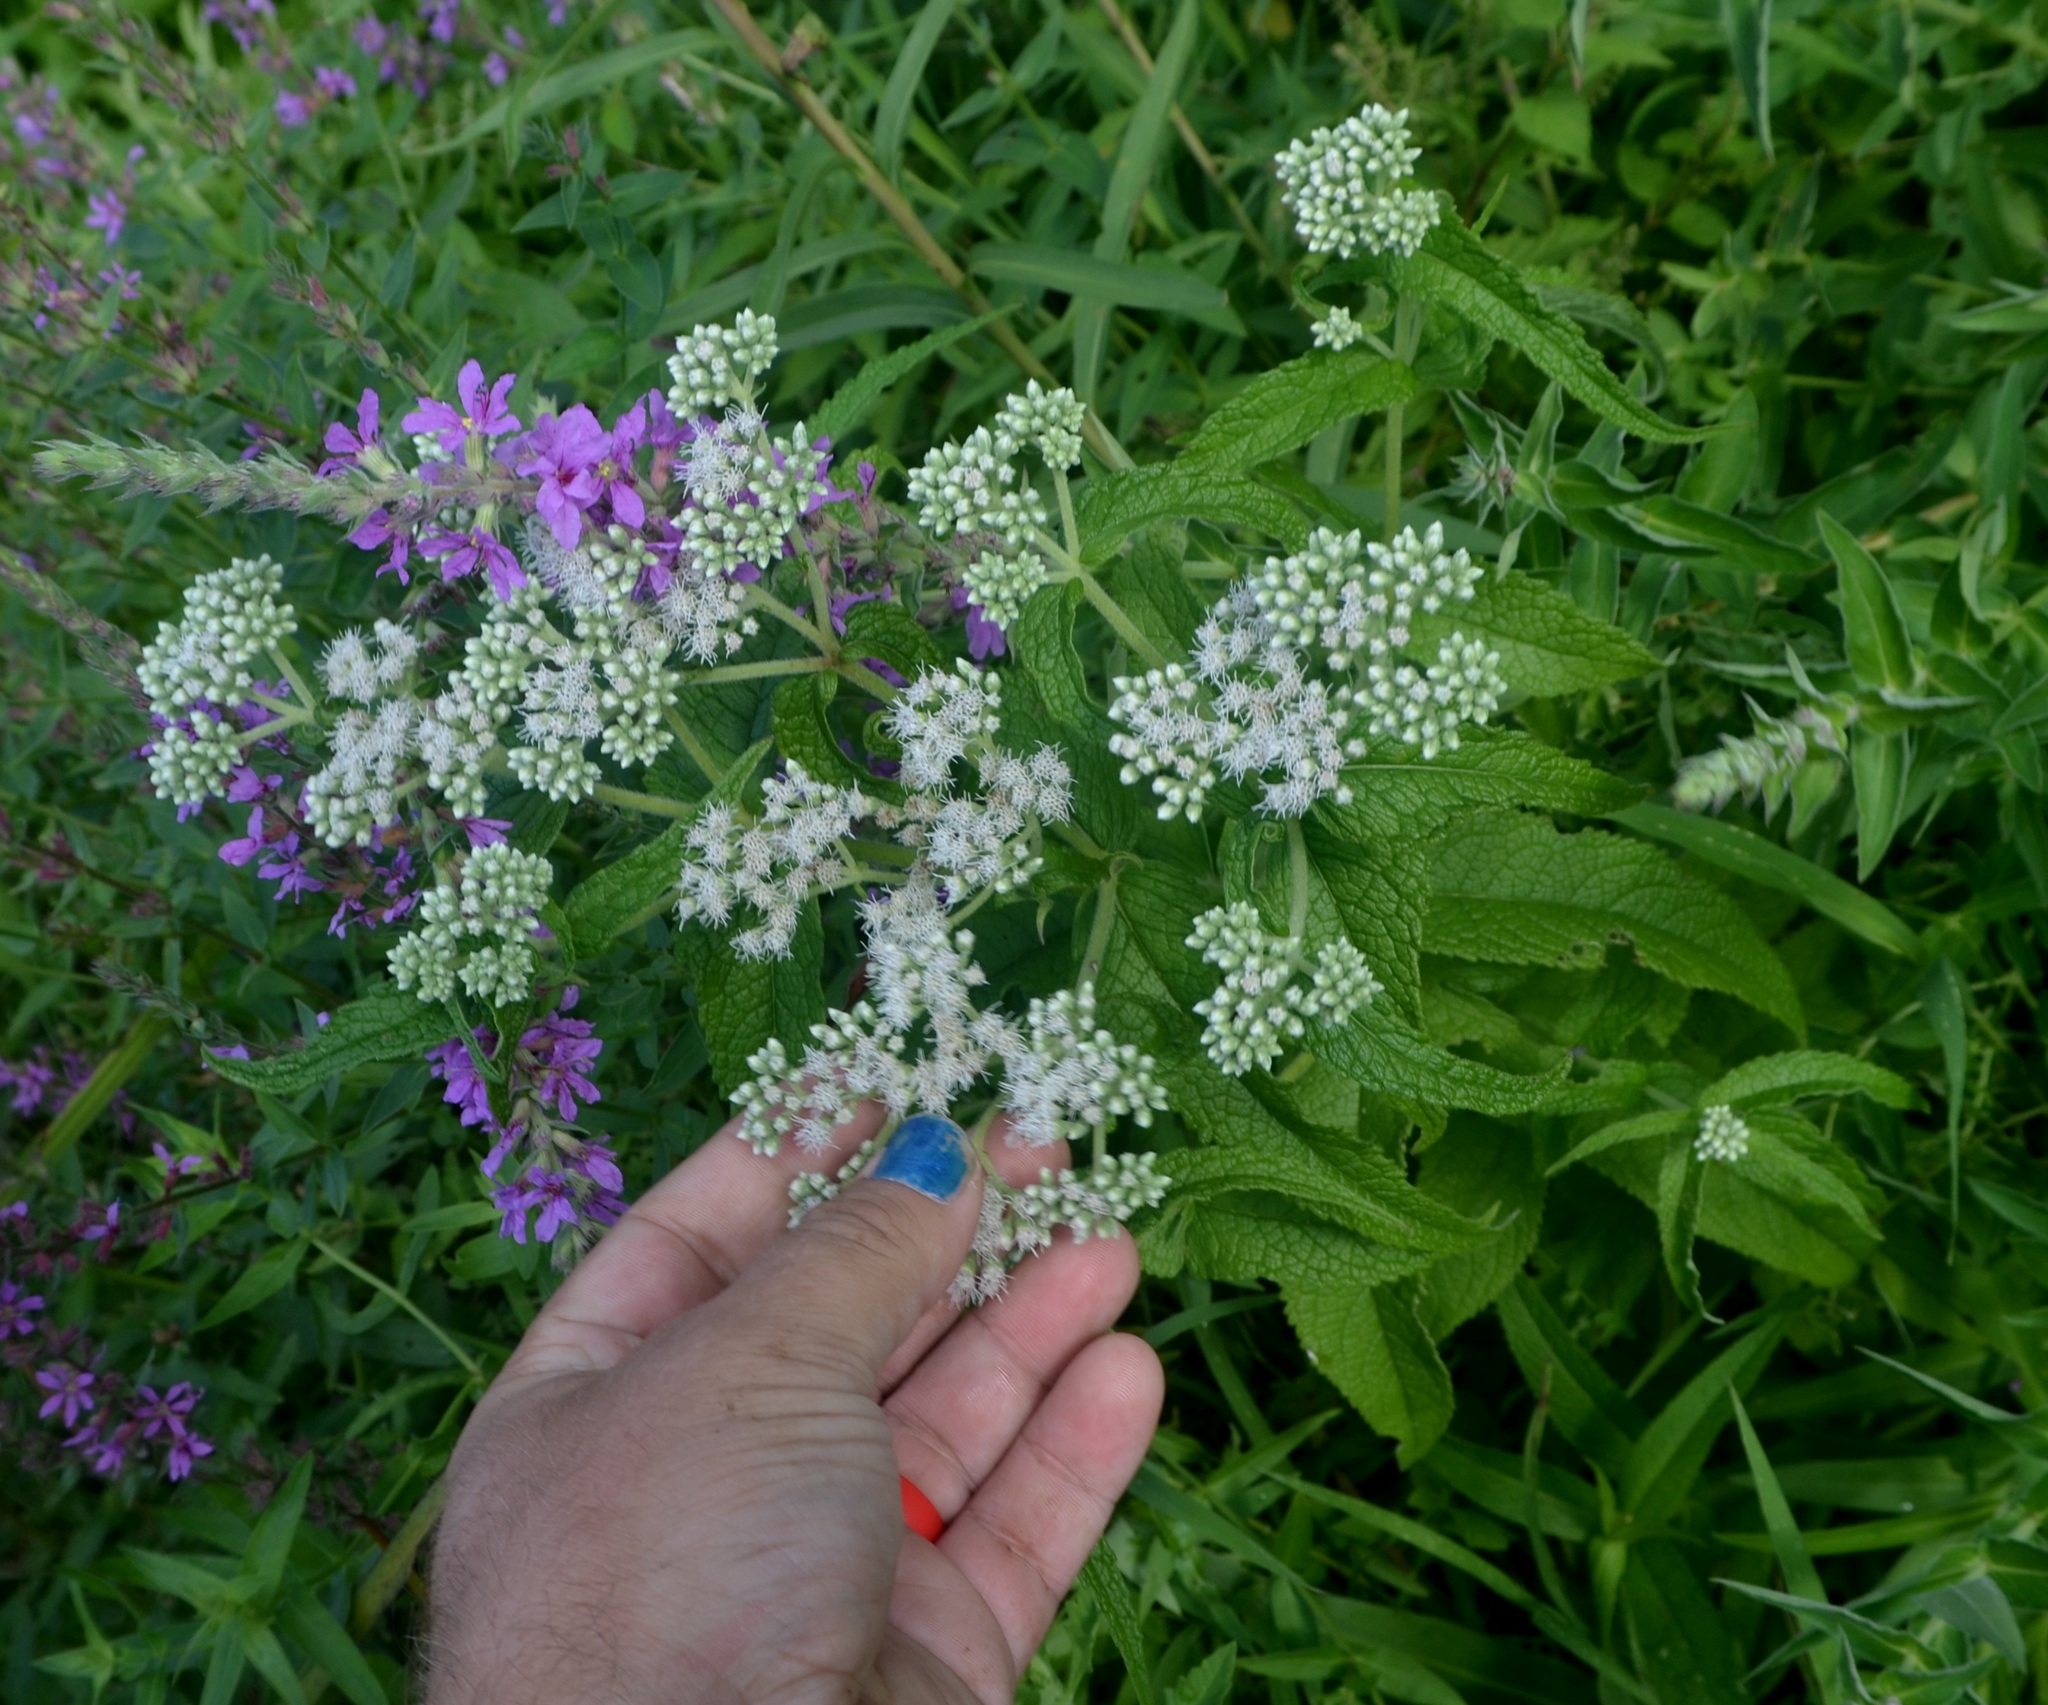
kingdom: Plantae
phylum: Tracheophyta
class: Magnoliopsida
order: Asterales
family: Asteraceae
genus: Eupatorium
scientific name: Eupatorium perfoliatum
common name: Boneset
